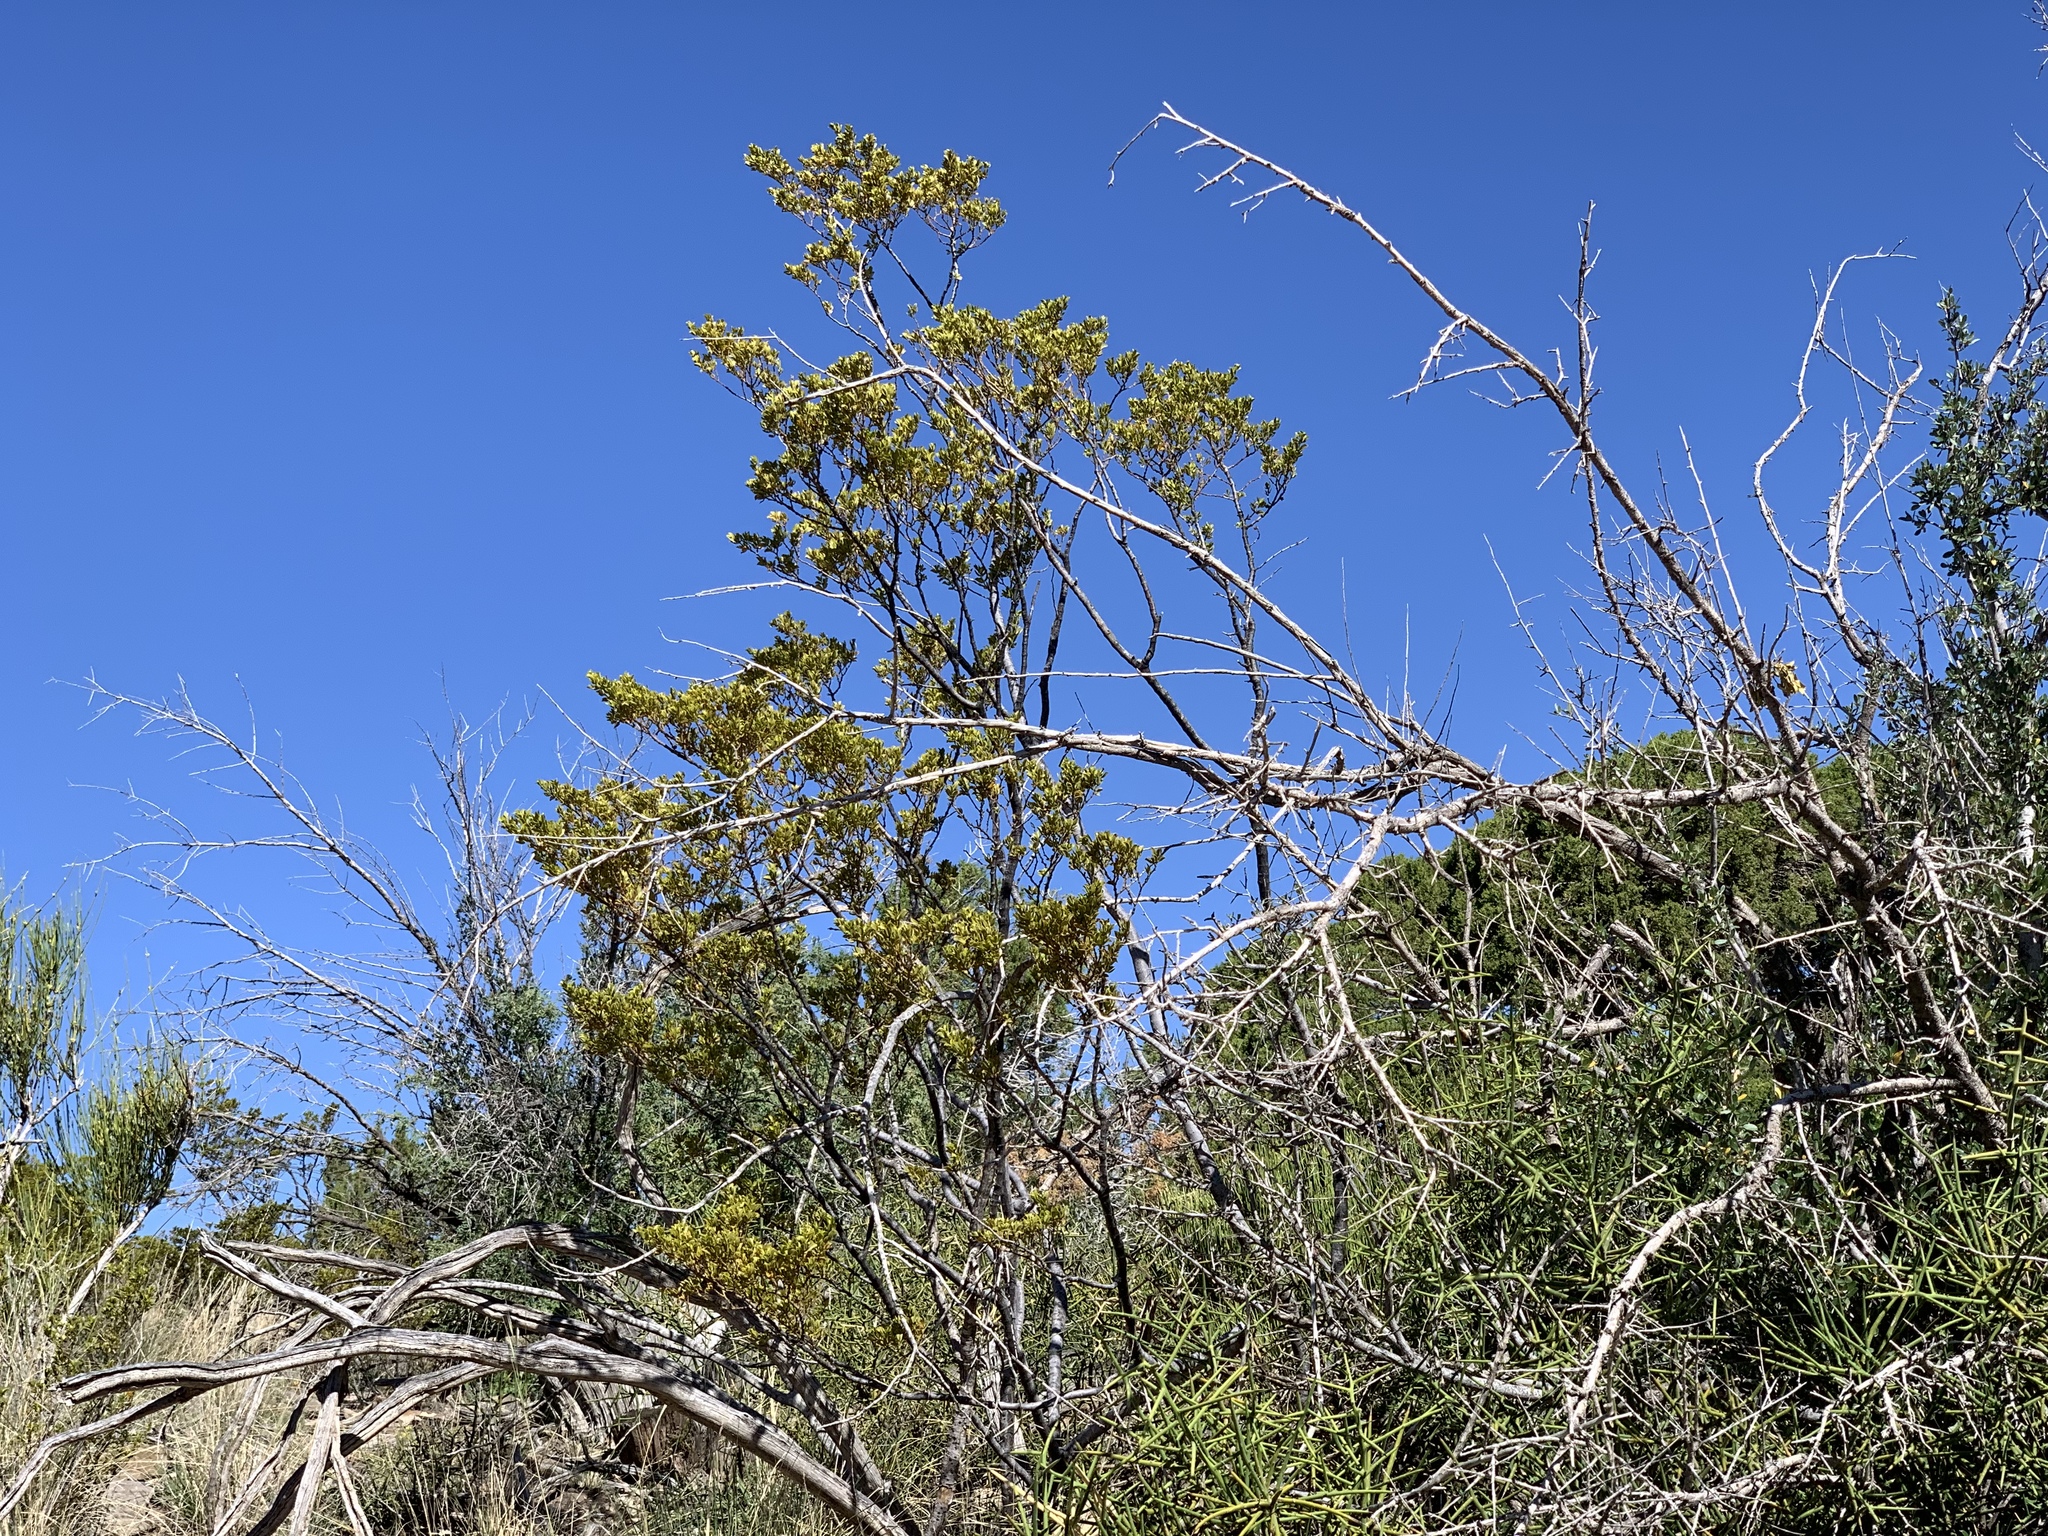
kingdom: Plantae
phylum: Tracheophyta
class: Magnoliopsida
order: Zygophyllales
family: Zygophyllaceae
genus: Larrea
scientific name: Larrea tridentata
